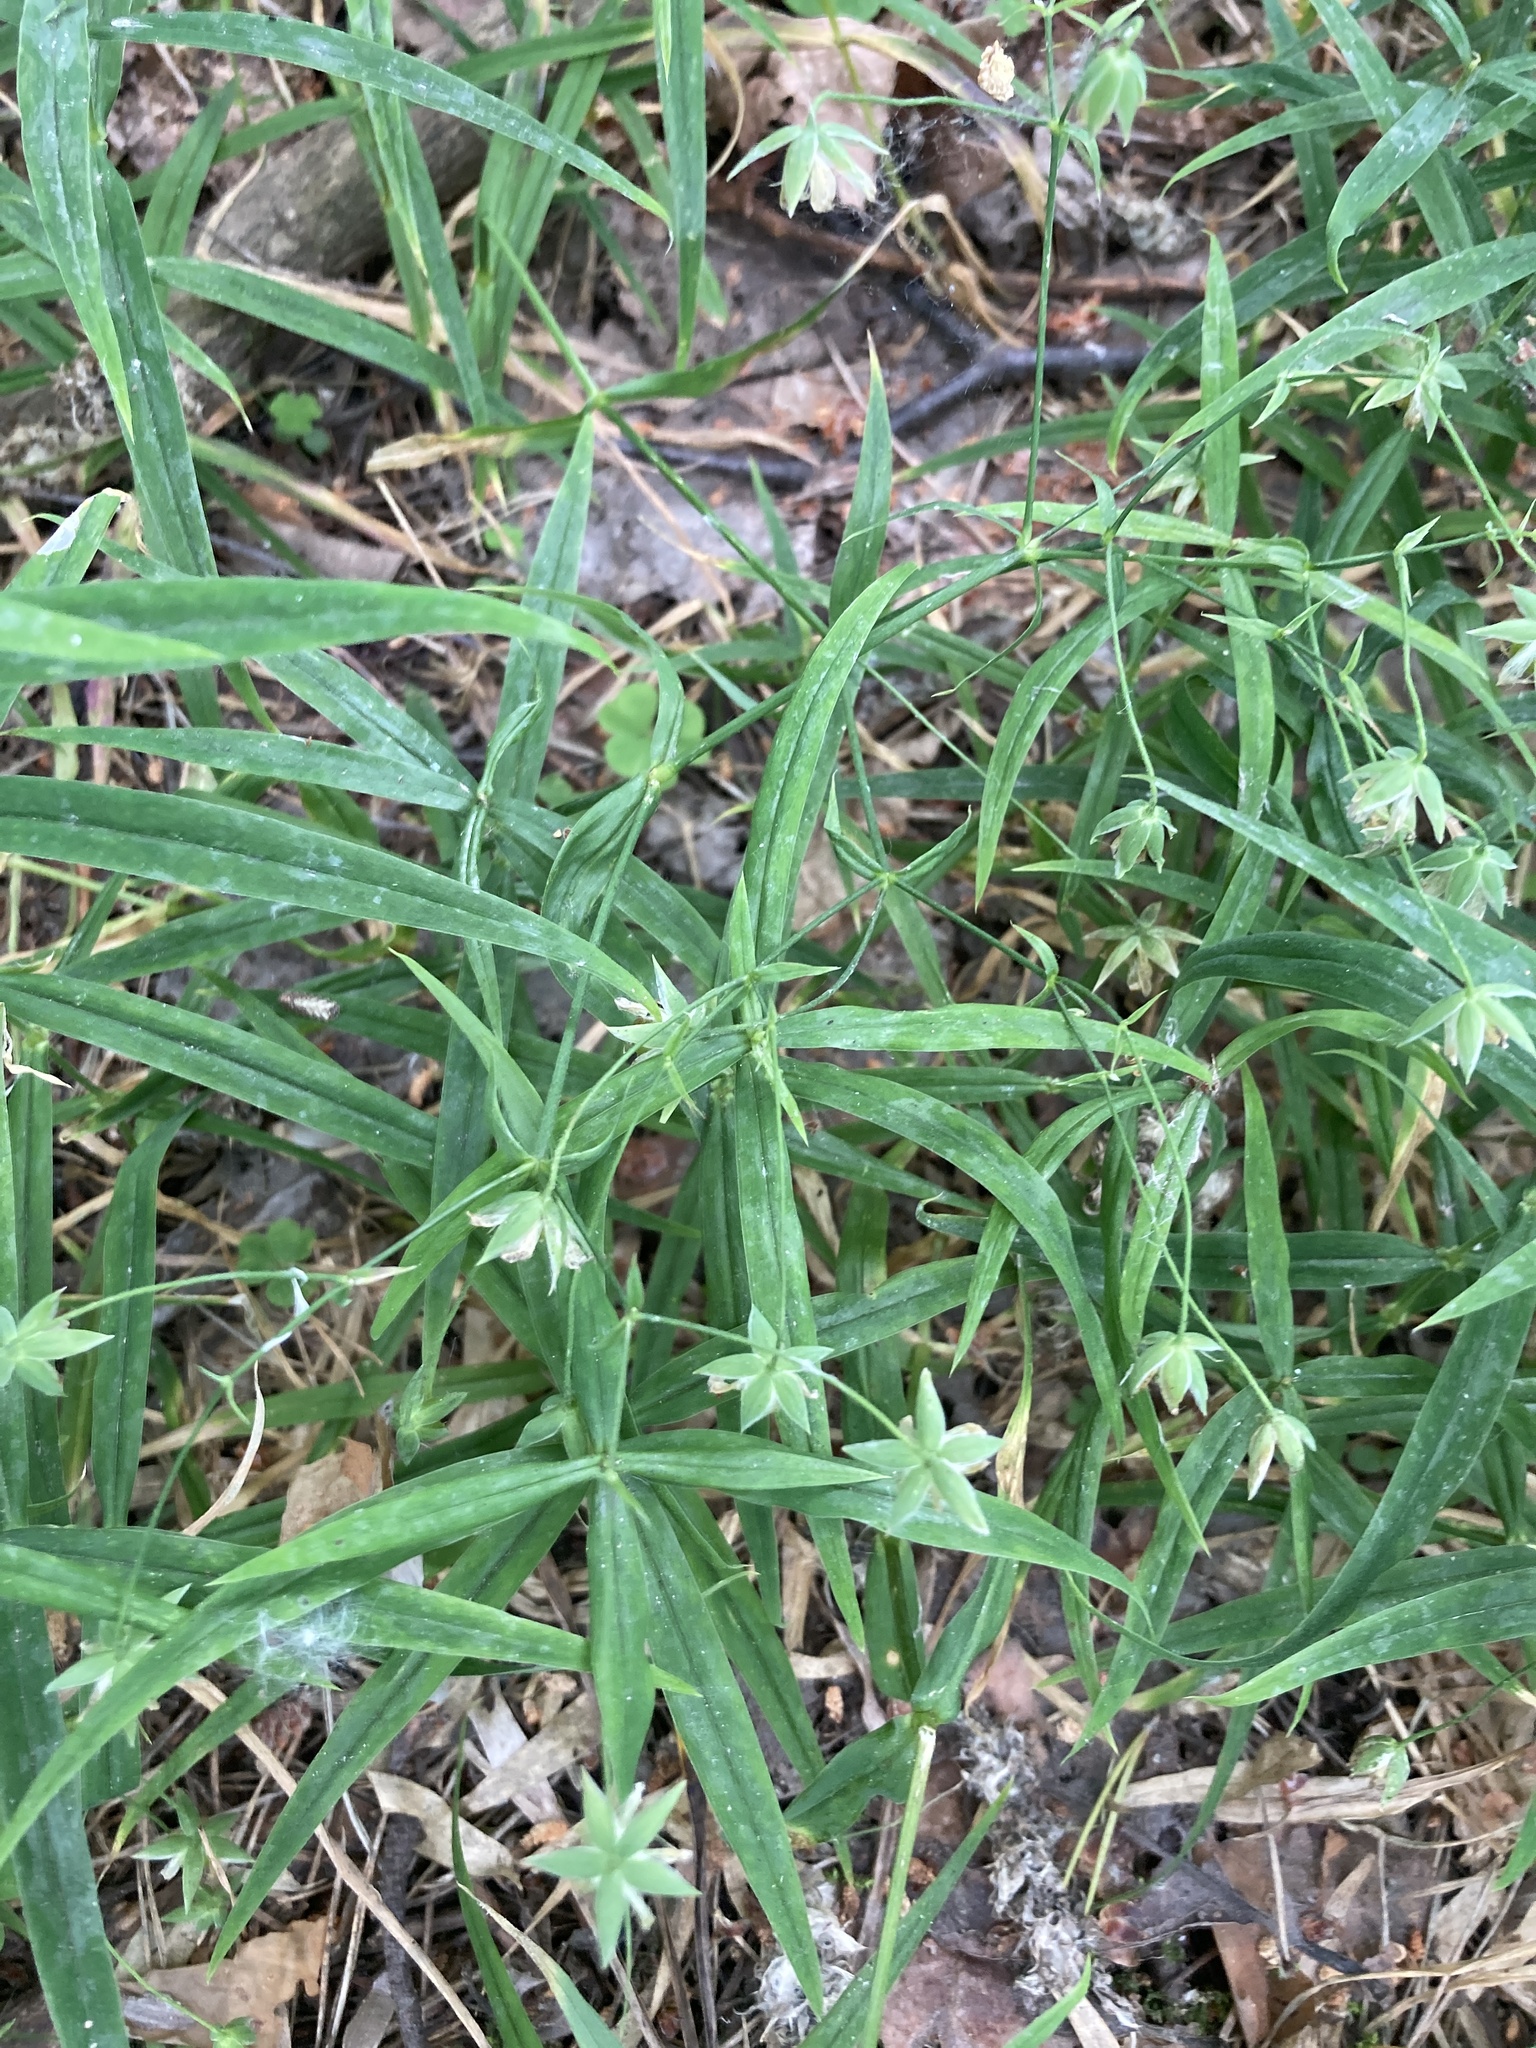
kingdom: Plantae
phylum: Tracheophyta
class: Magnoliopsida
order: Caryophyllales
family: Caryophyllaceae
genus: Rabelera
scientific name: Rabelera holostea
